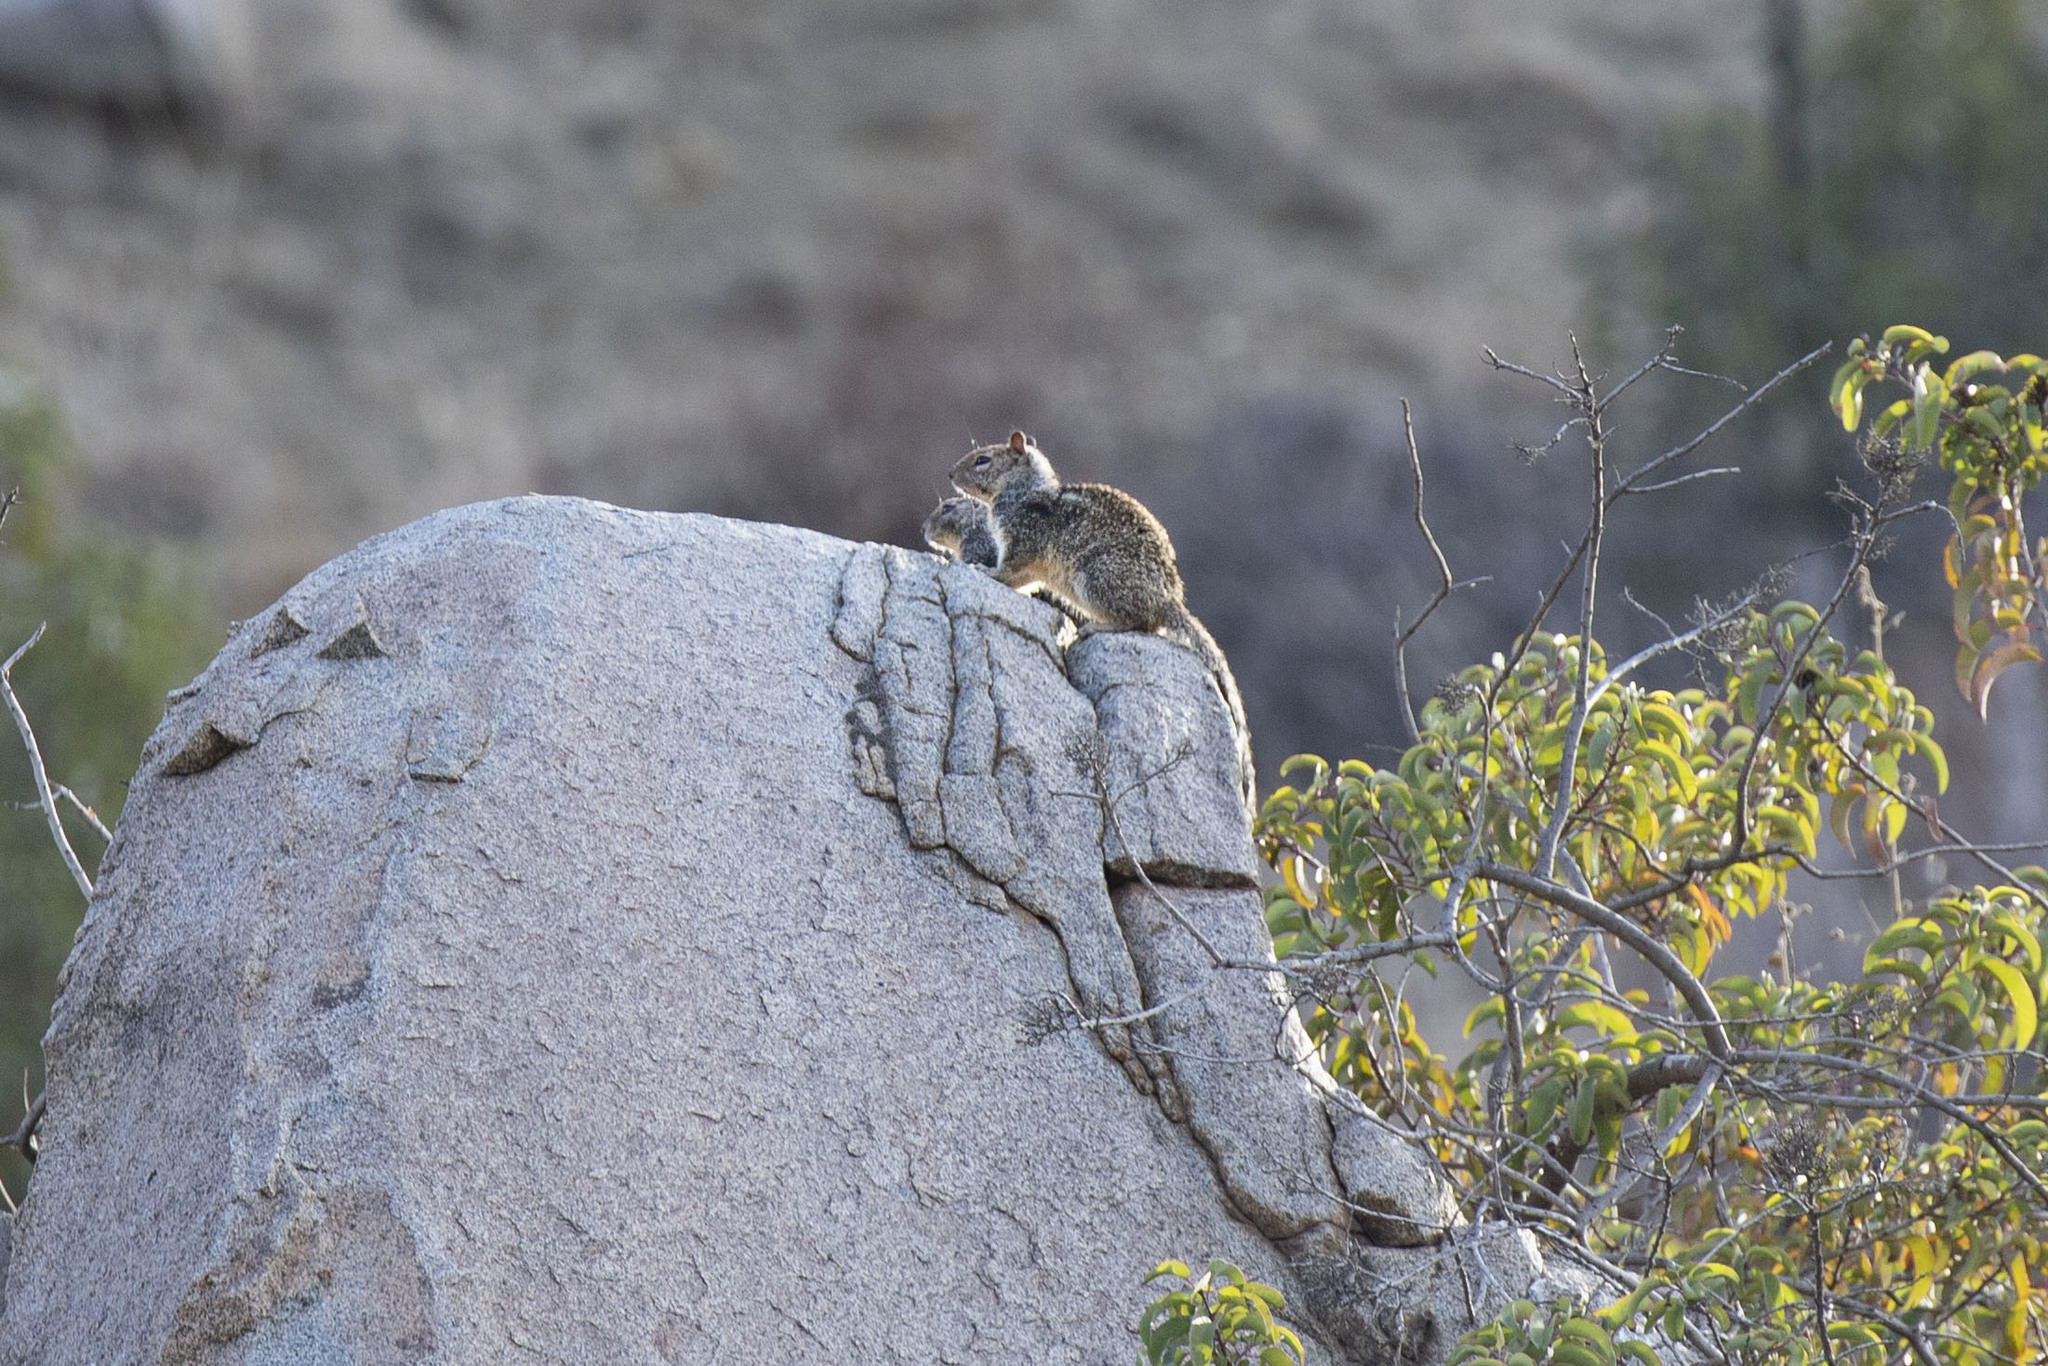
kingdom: Animalia
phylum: Chordata
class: Mammalia
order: Rodentia
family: Sciuridae
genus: Otospermophilus
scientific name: Otospermophilus beecheyi
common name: California ground squirrel
